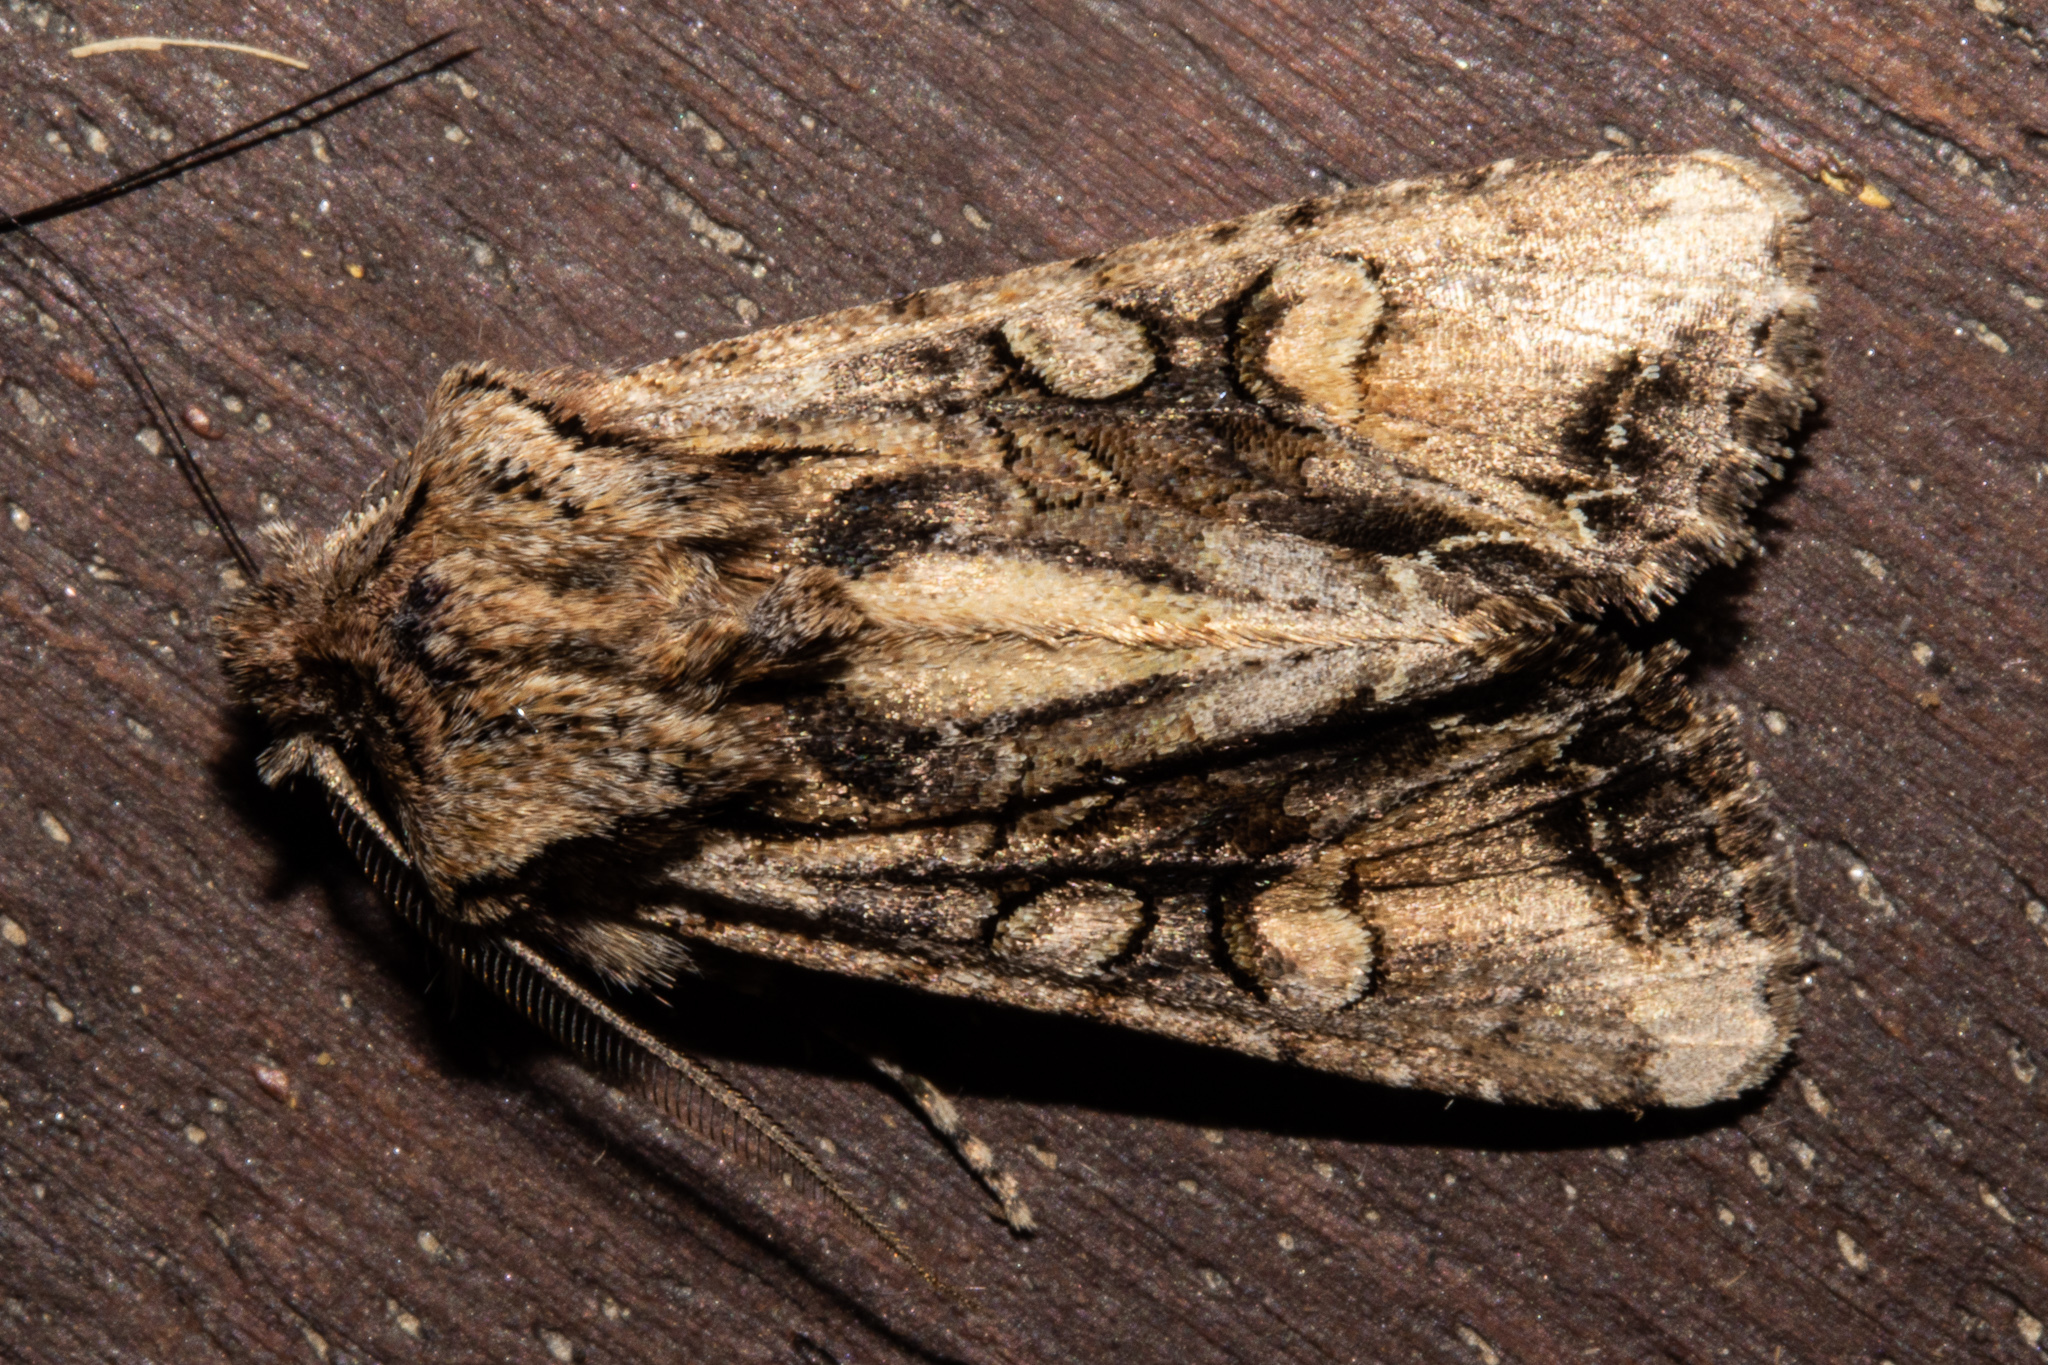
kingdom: Animalia
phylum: Arthropoda
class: Insecta
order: Lepidoptera
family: Noctuidae
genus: Ichneutica
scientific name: Ichneutica
